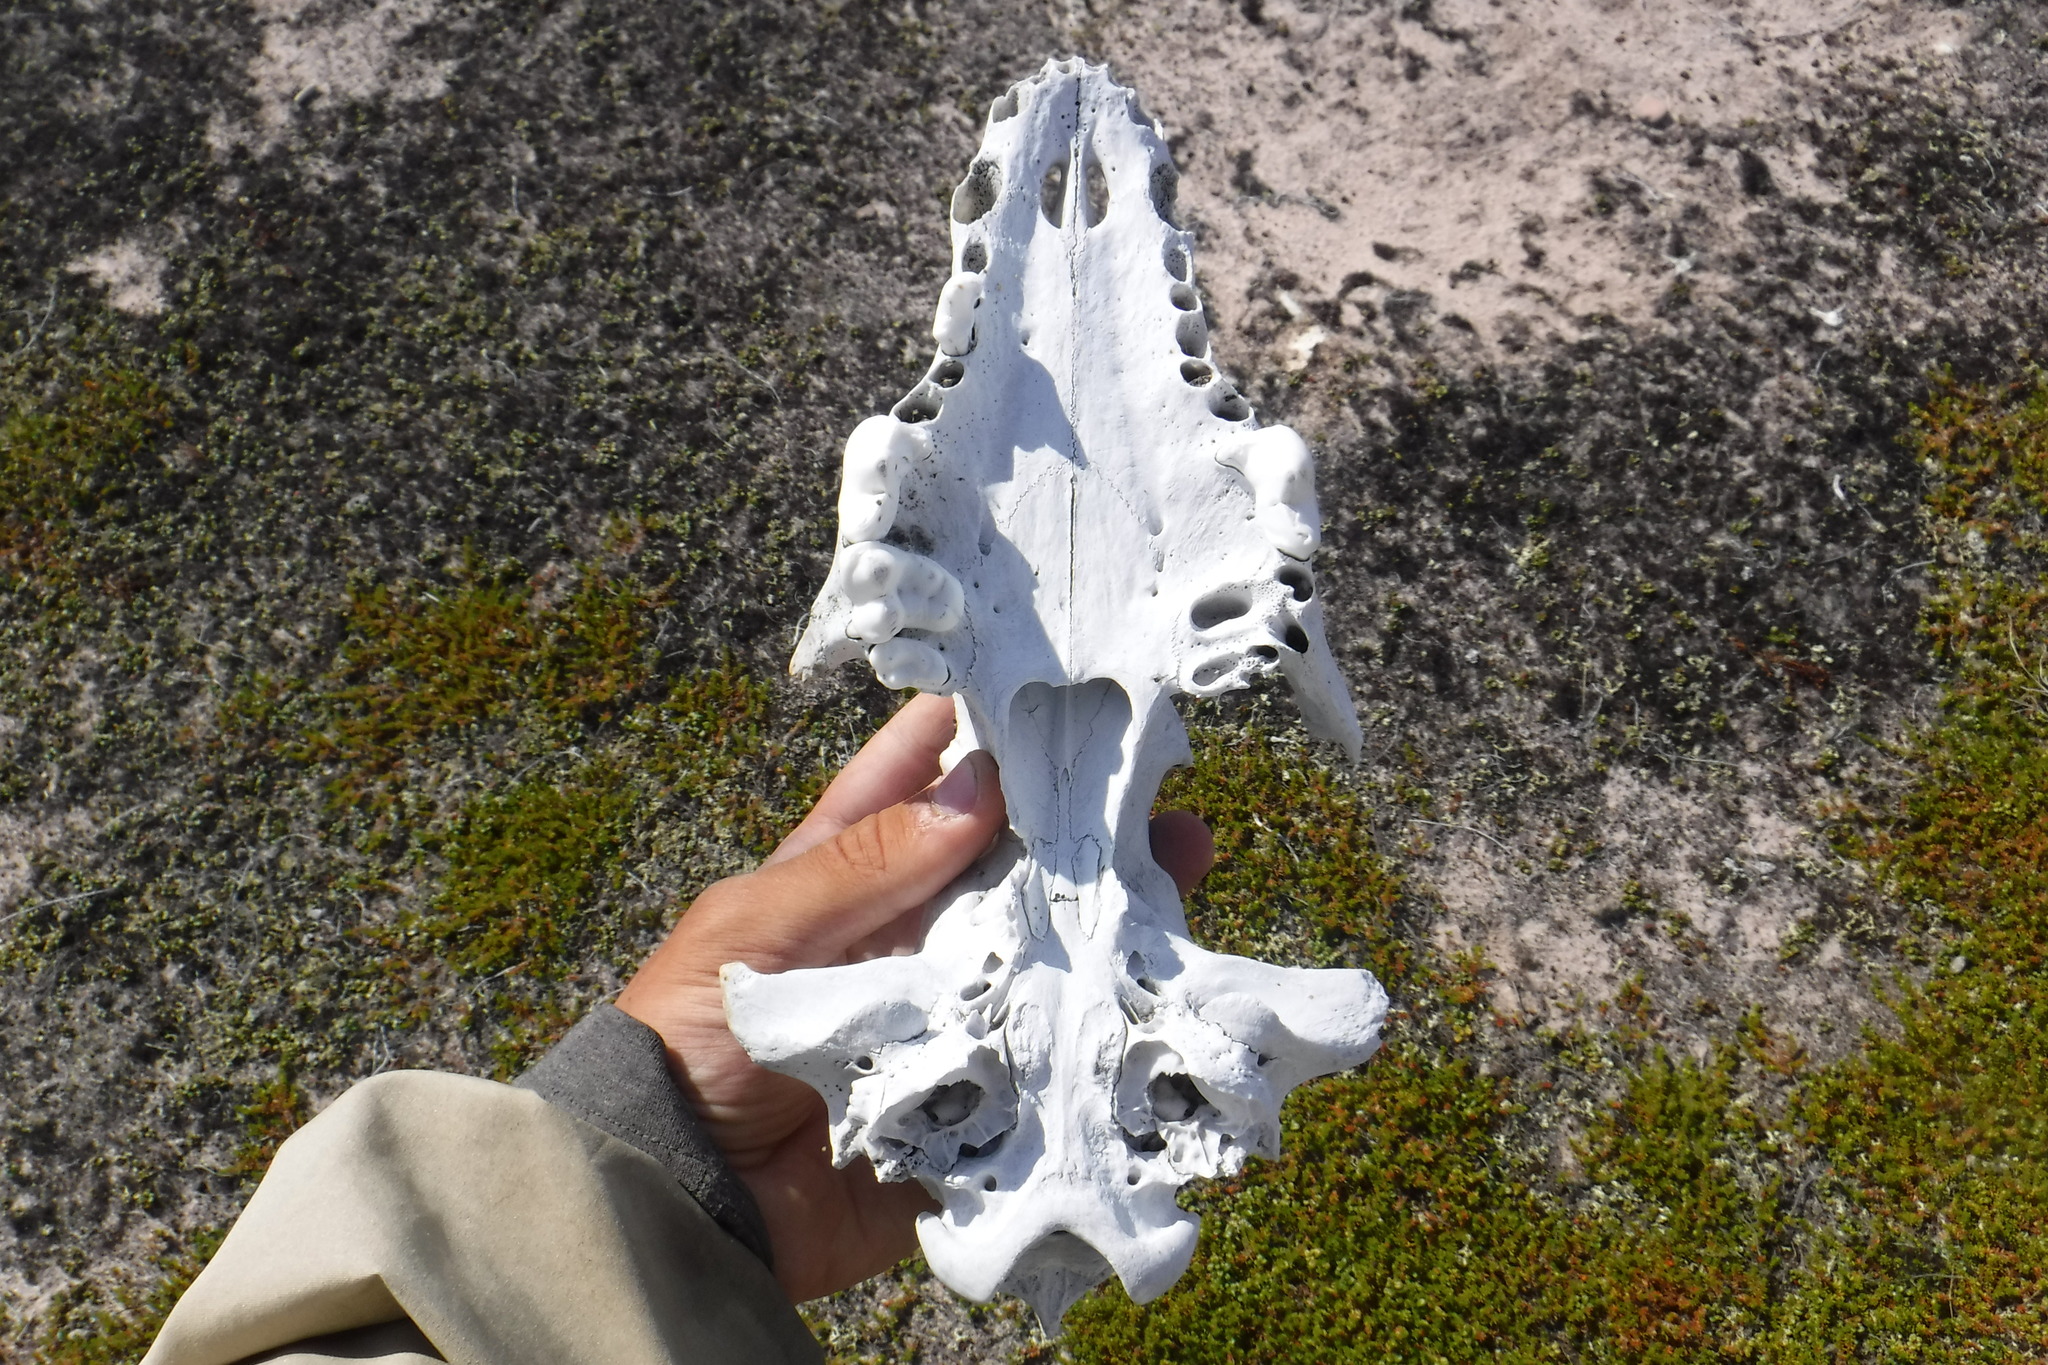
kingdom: Animalia
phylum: Chordata
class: Mammalia
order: Carnivora
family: Canidae
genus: Canis
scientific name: Canis lupus
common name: Gray wolf
